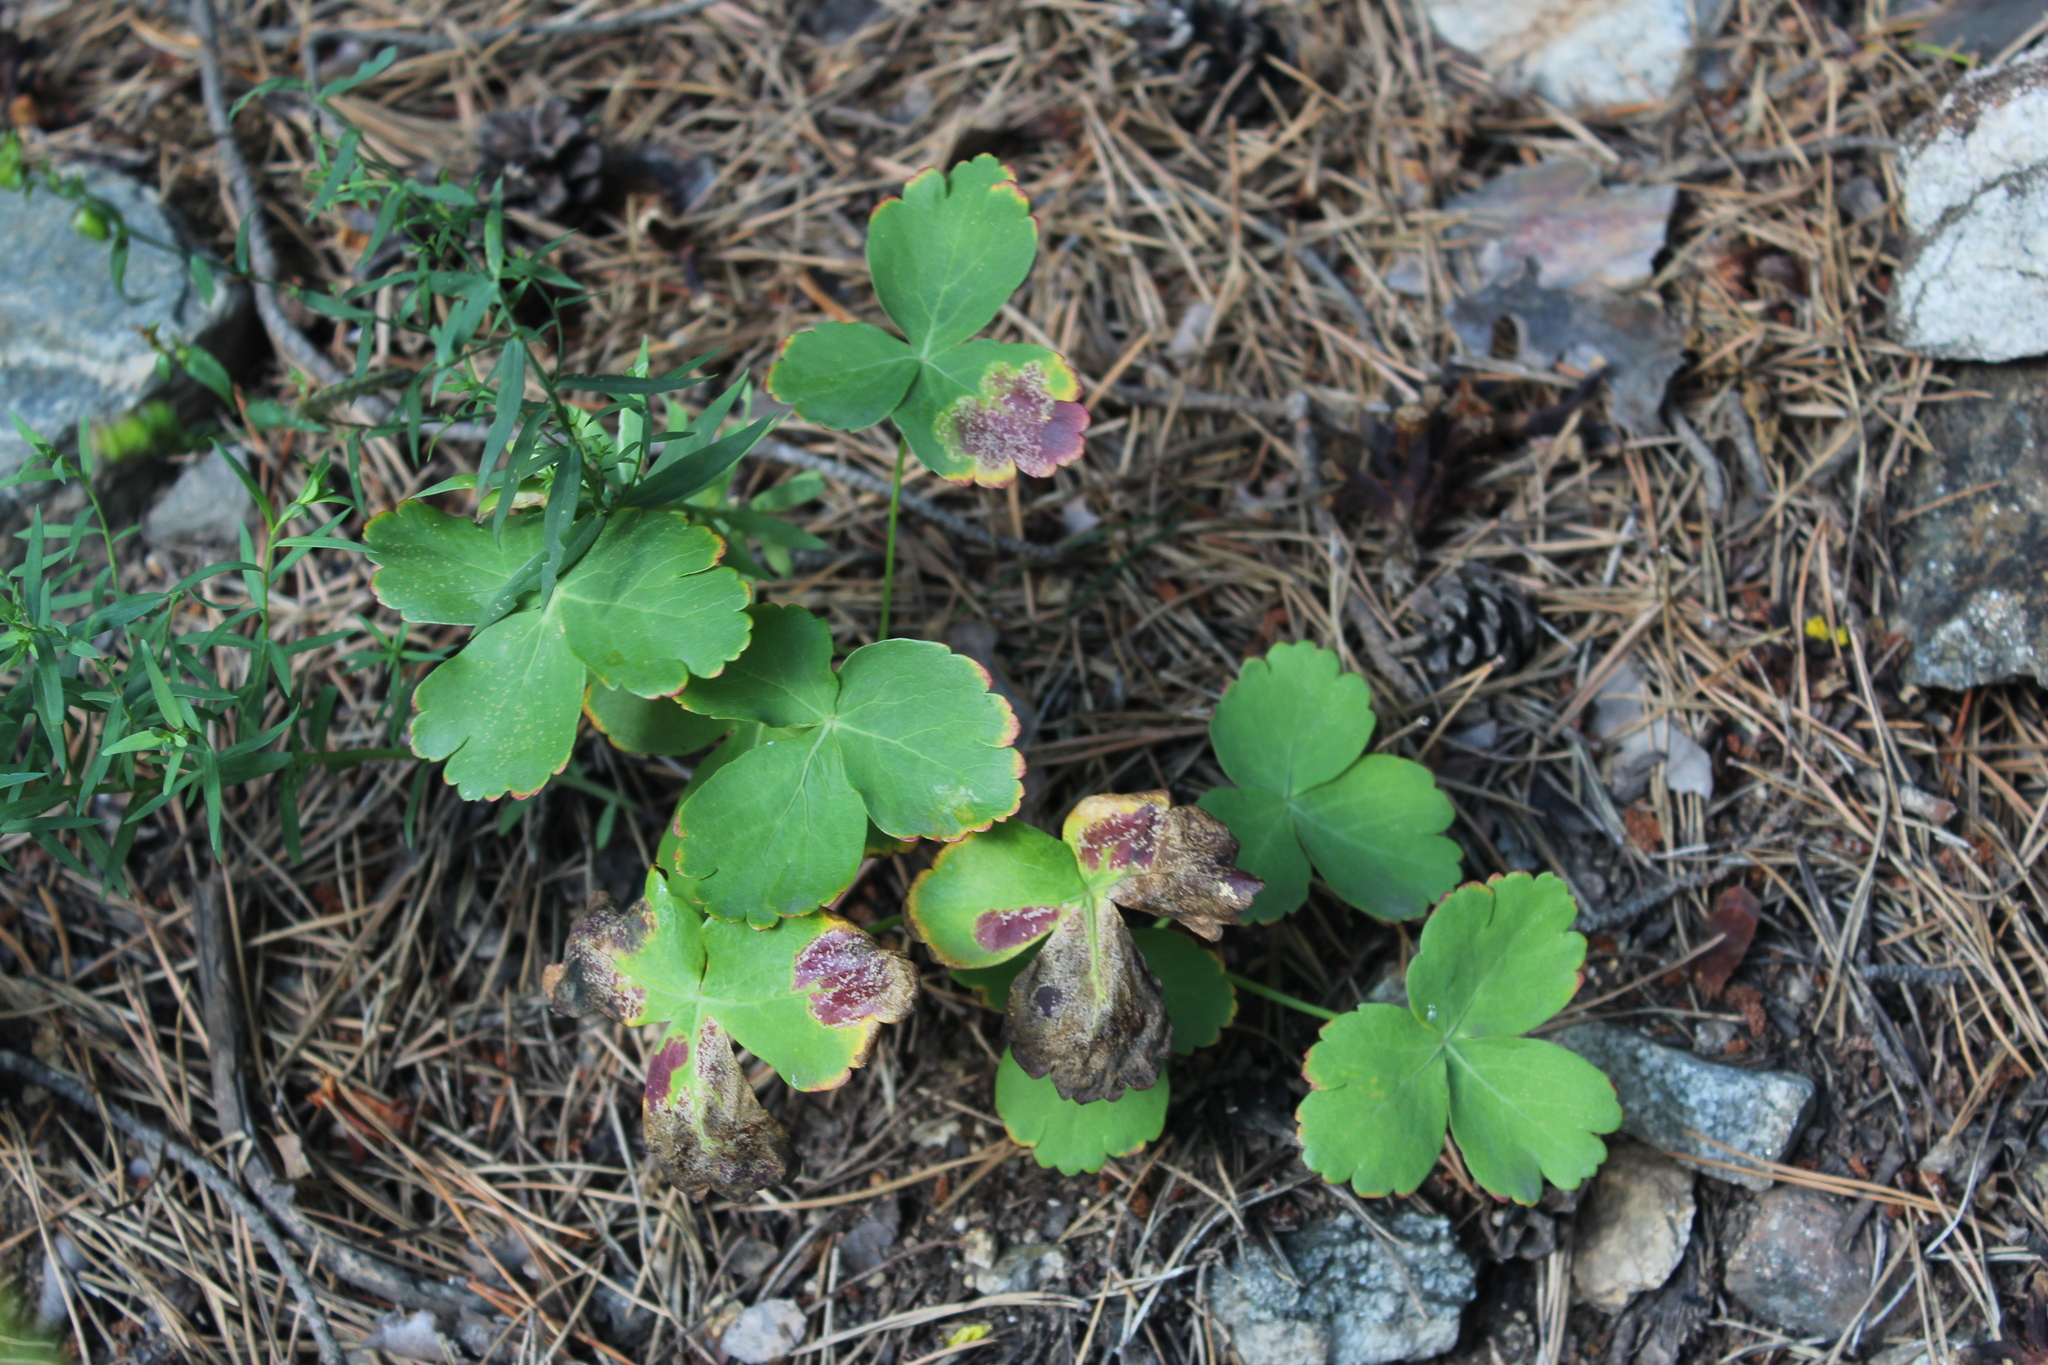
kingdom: Plantae
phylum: Tracheophyta
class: Magnoliopsida
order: Apiales
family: Apiaceae
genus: Laser
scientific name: Laser trilobum
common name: Laser
